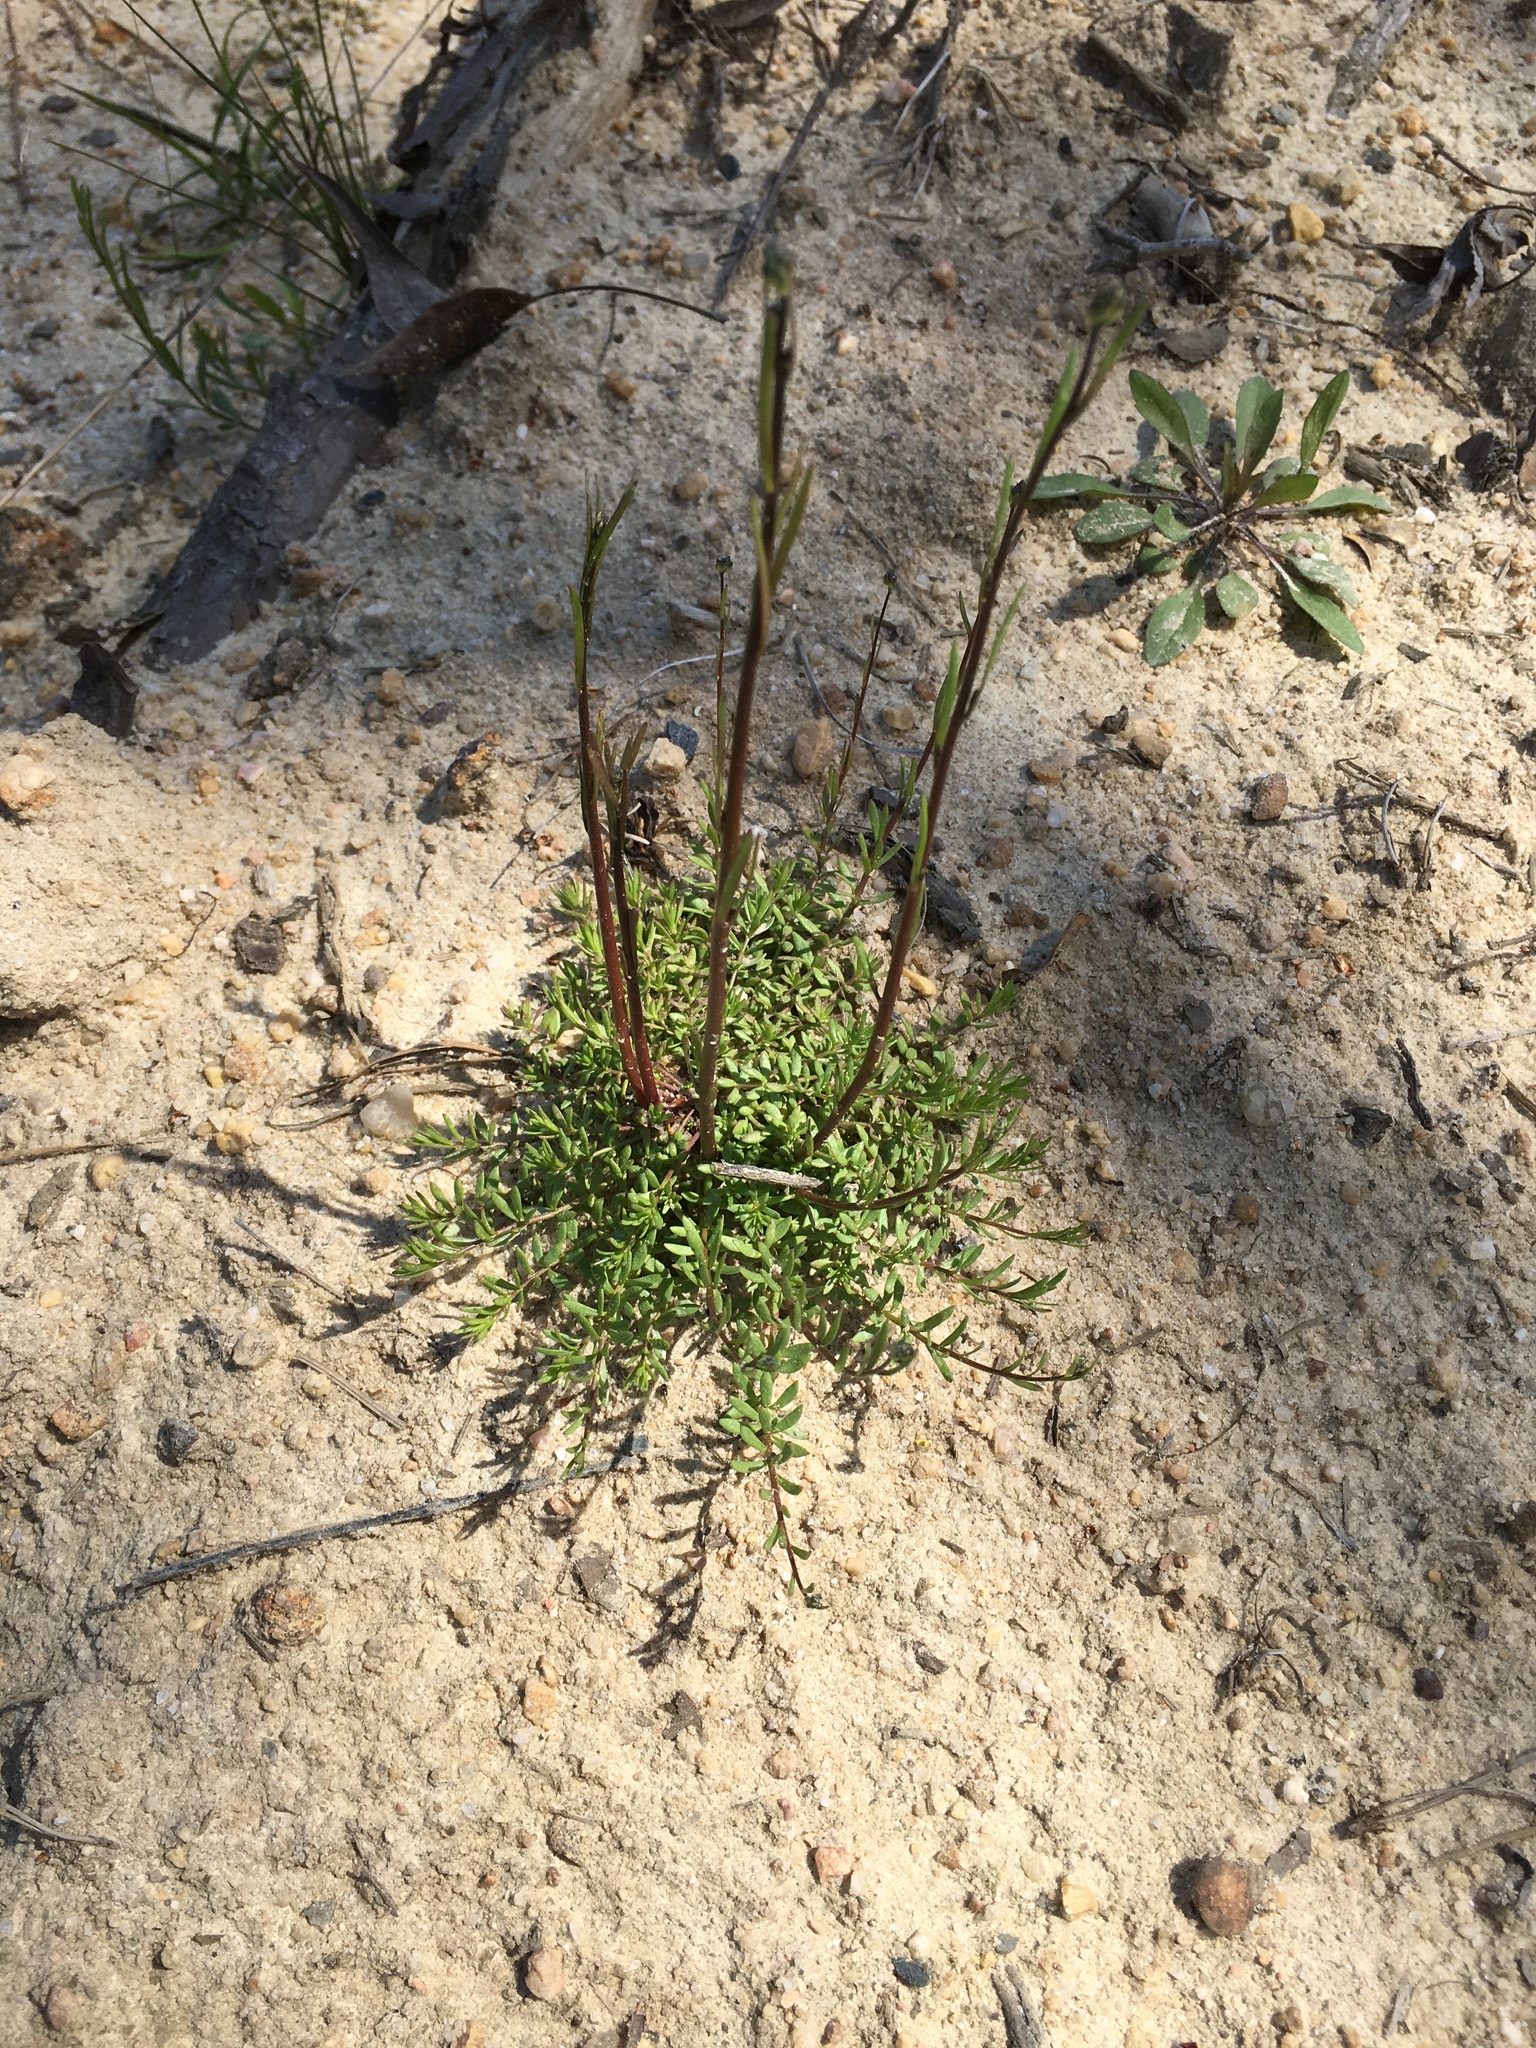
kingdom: Plantae
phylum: Tracheophyta
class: Magnoliopsida
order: Lamiales
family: Plantaginaceae
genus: Nuttallanthus
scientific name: Nuttallanthus canadensis
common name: Blue toadflax
